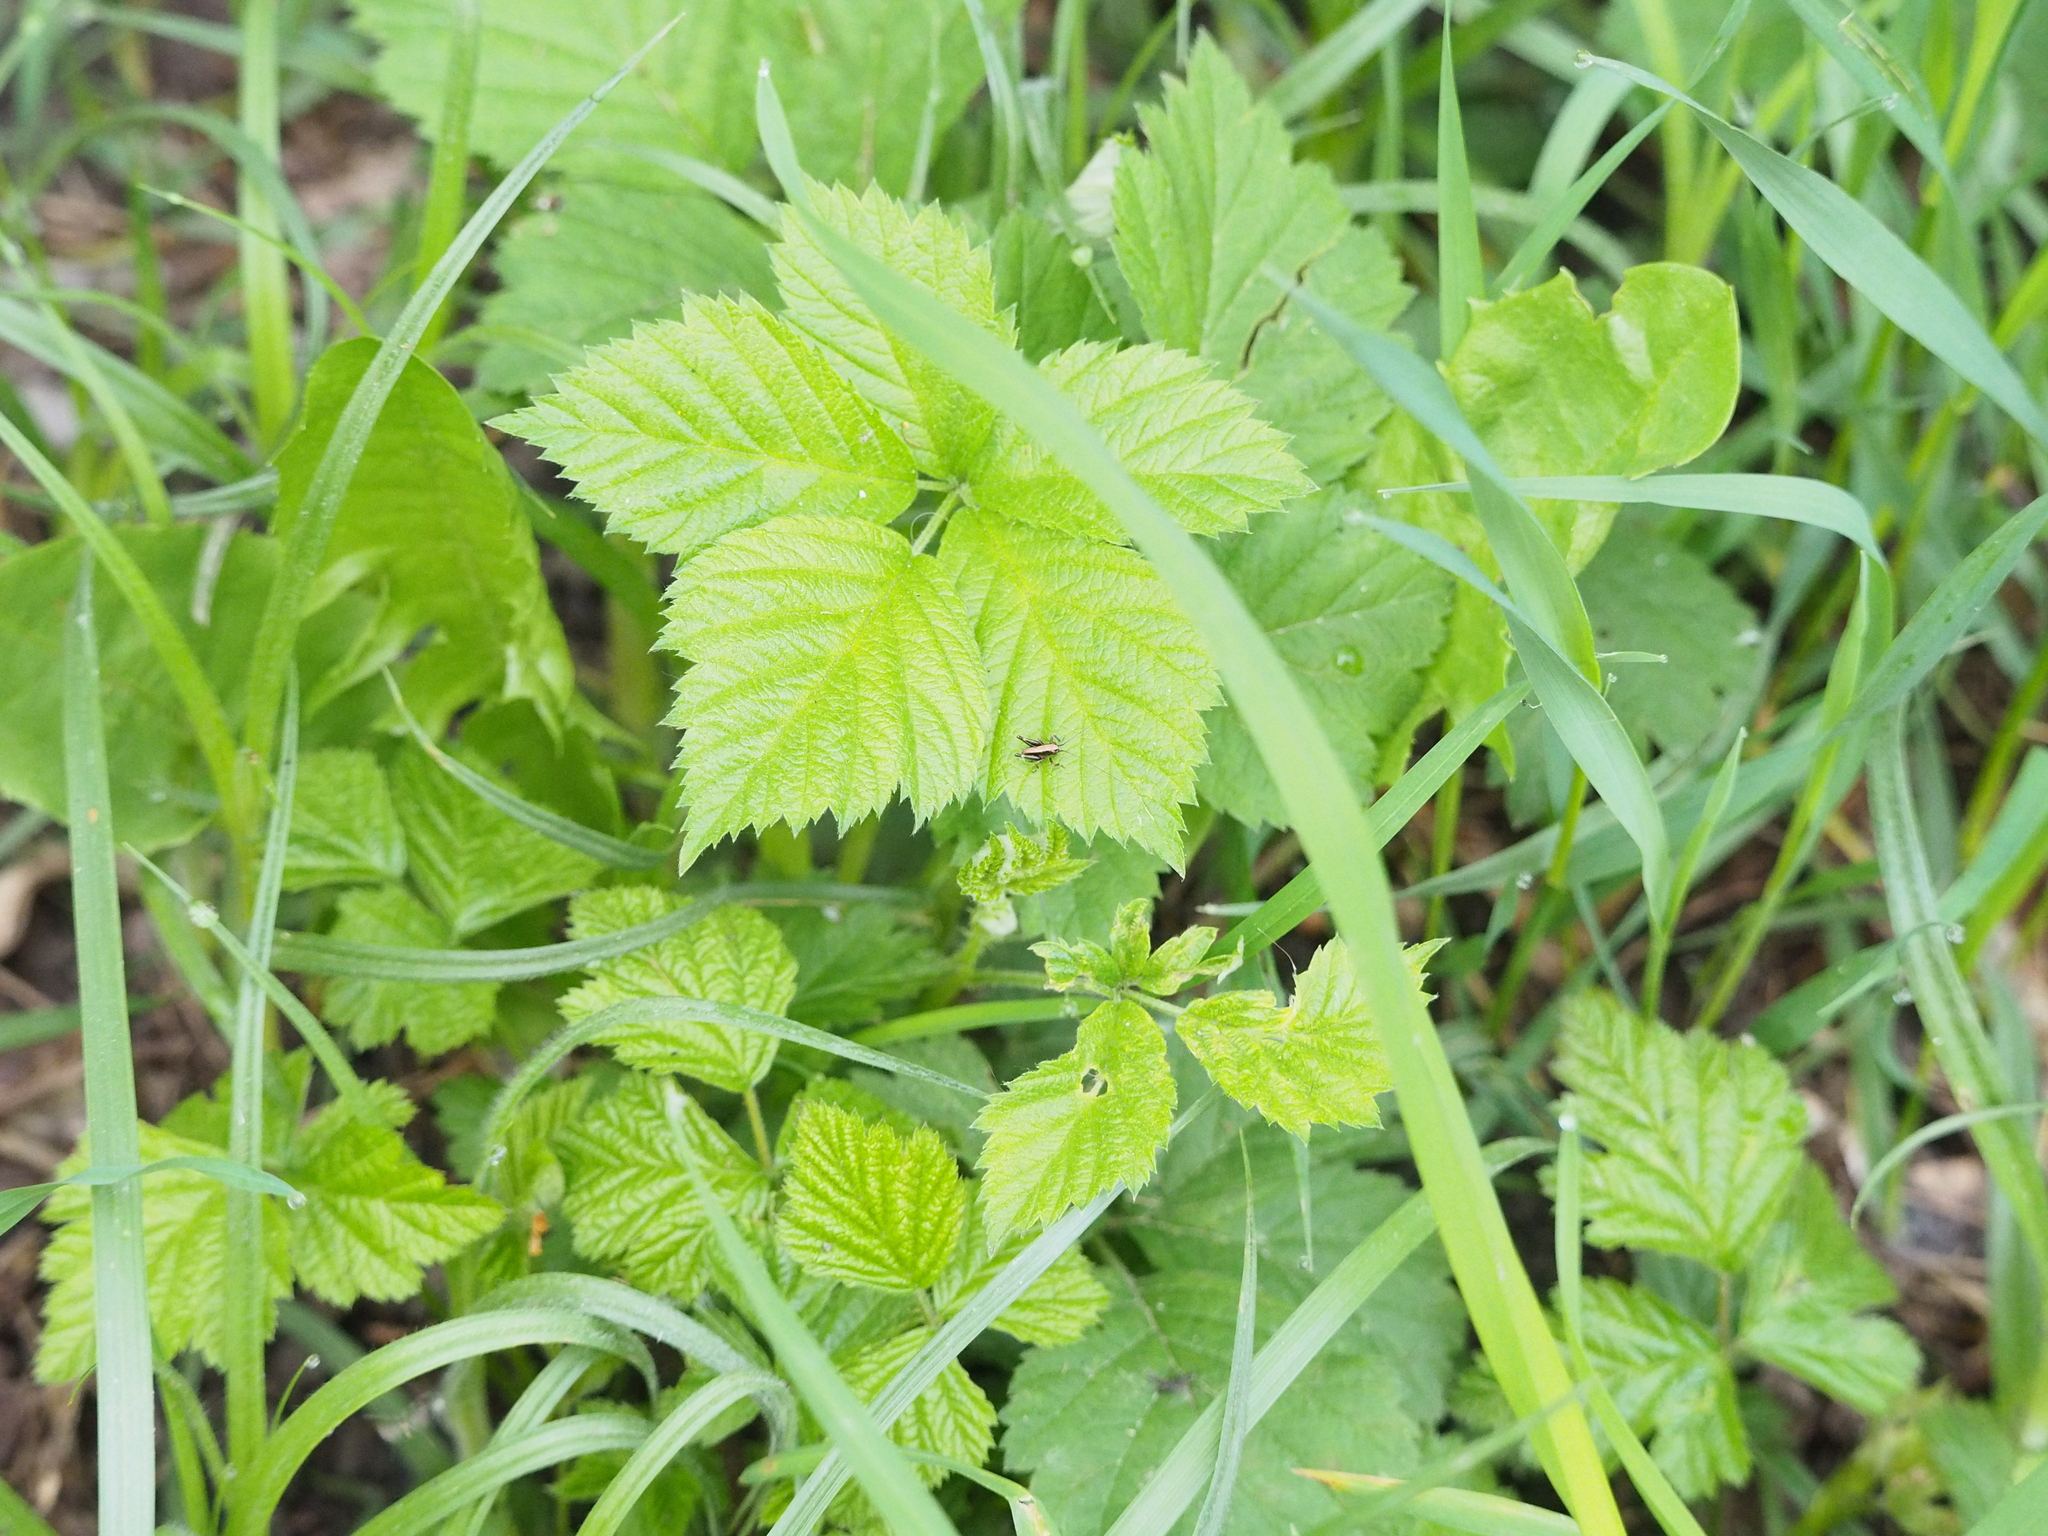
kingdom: Animalia
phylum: Arthropoda
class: Insecta
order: Orthoptera
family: Tettigoniidae
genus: Pholidoptera
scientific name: Pholidoptera griseoaptera
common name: Dark bush-cricket
